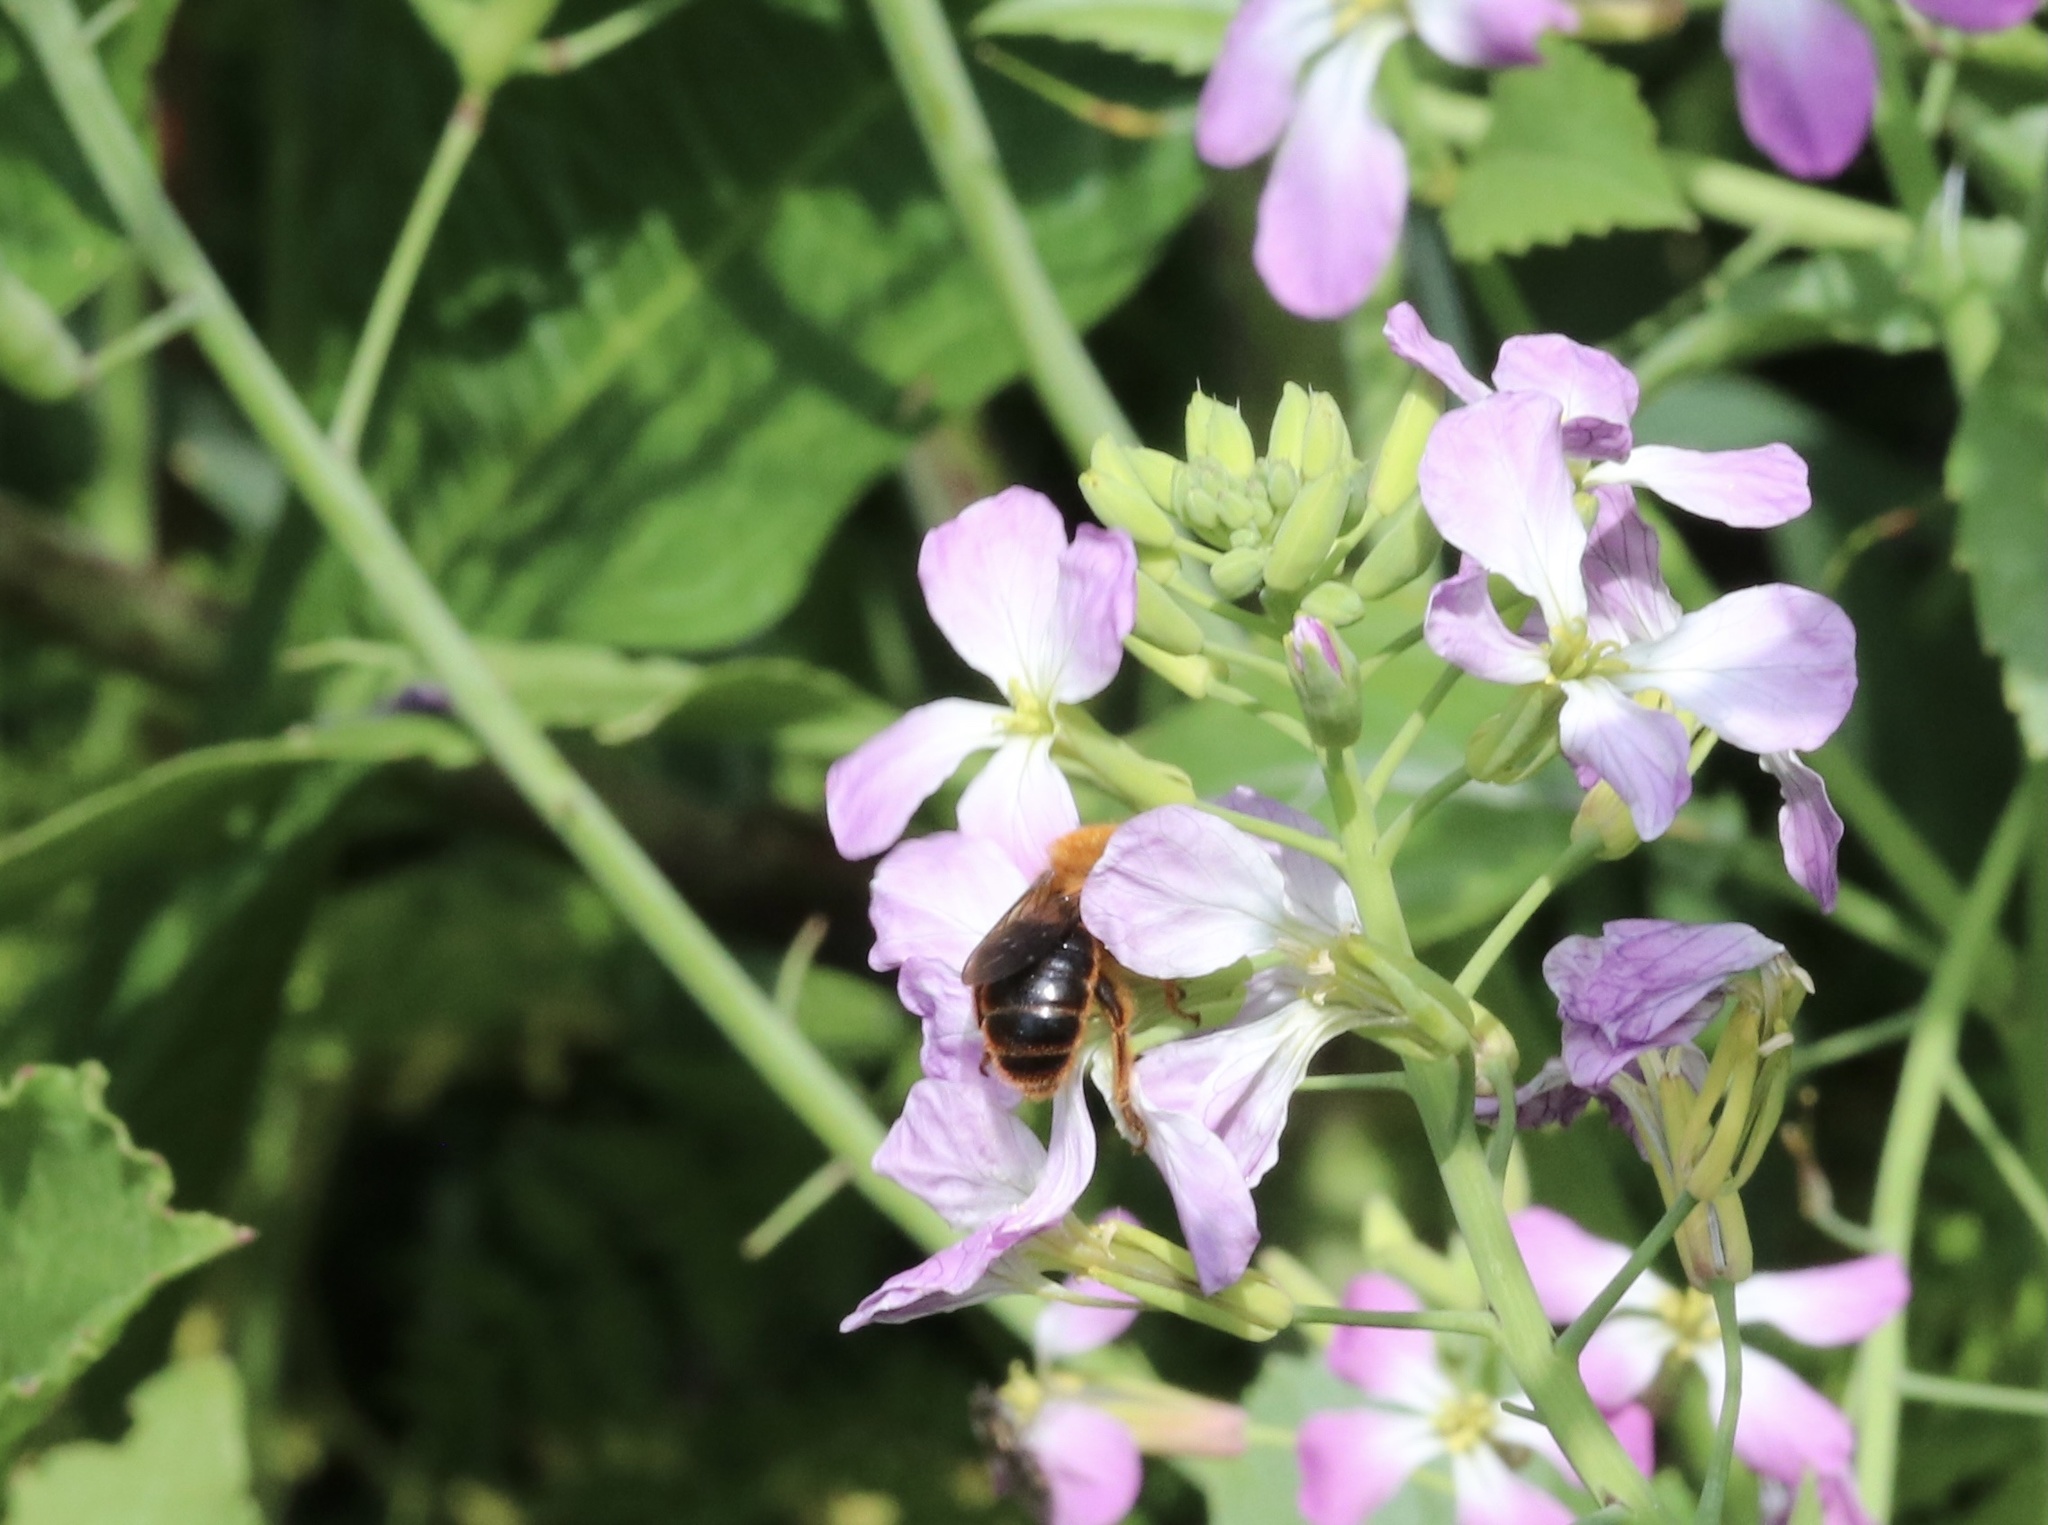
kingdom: Animalia
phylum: Arthropoda
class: Insecta
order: Hymenoptera
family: Colletidae
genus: Cadeguala
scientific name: Cadeguala occidentalis
